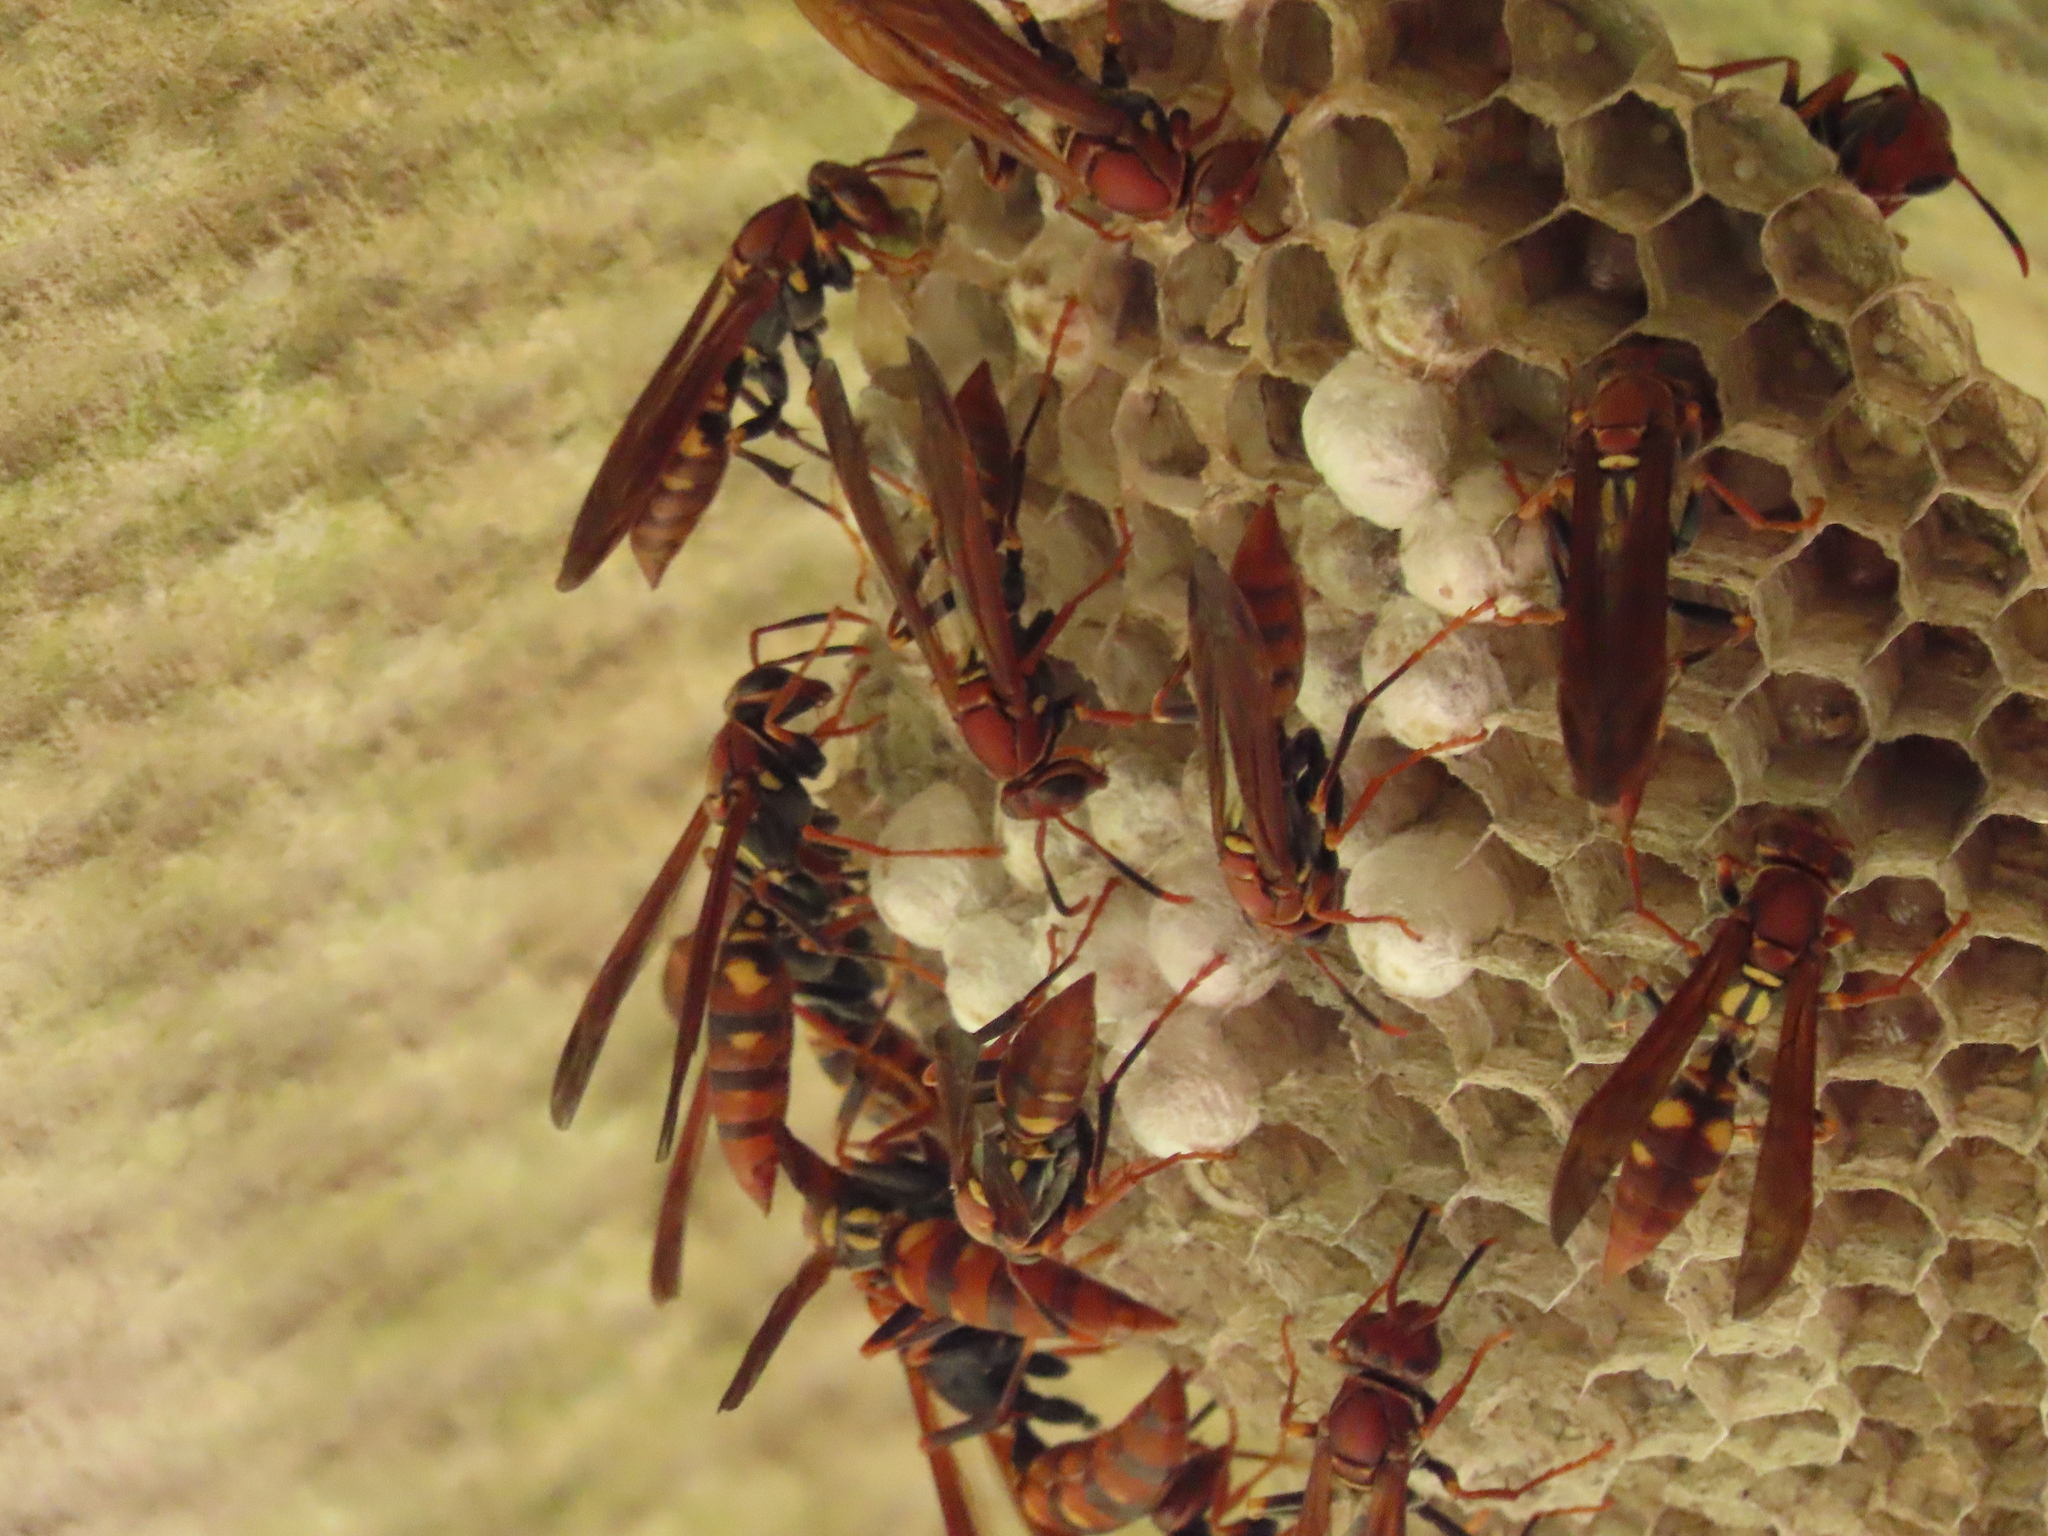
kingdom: Animalia
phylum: Arthropoda
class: Insecta
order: Hymenoptera
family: Eumenidae
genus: Polistes
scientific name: Polistes versicolor
